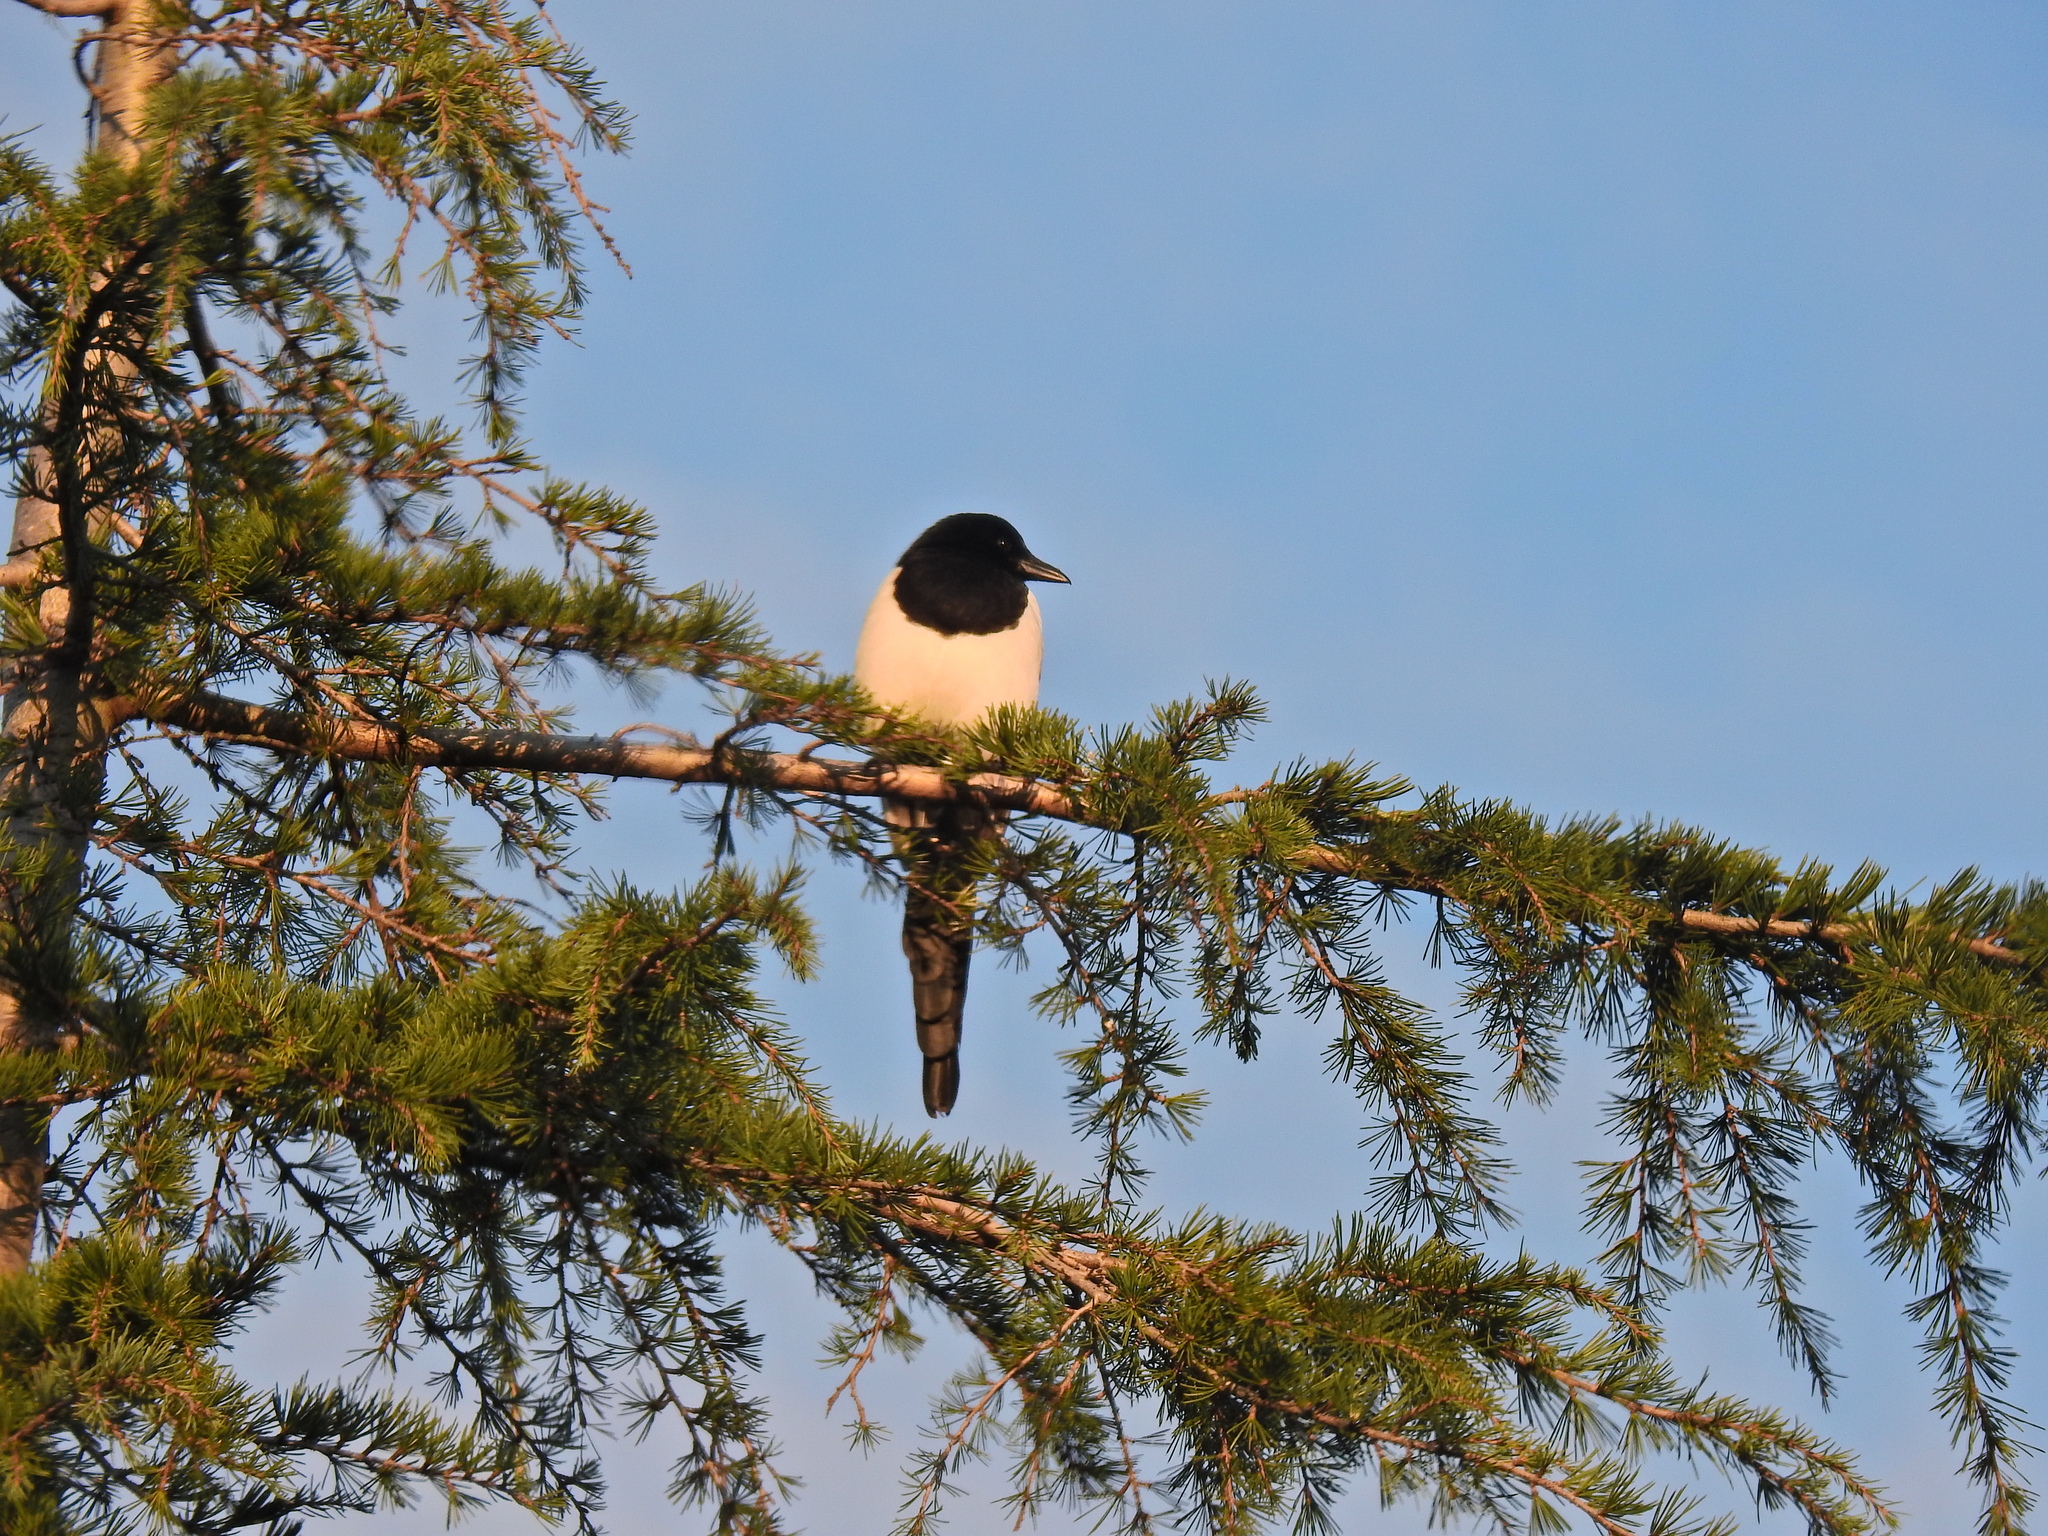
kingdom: Animalia
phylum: Chordata
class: Aves
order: Passeriformes
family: Corvidae
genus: Pica
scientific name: Pica pica
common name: Eurasian magpie
